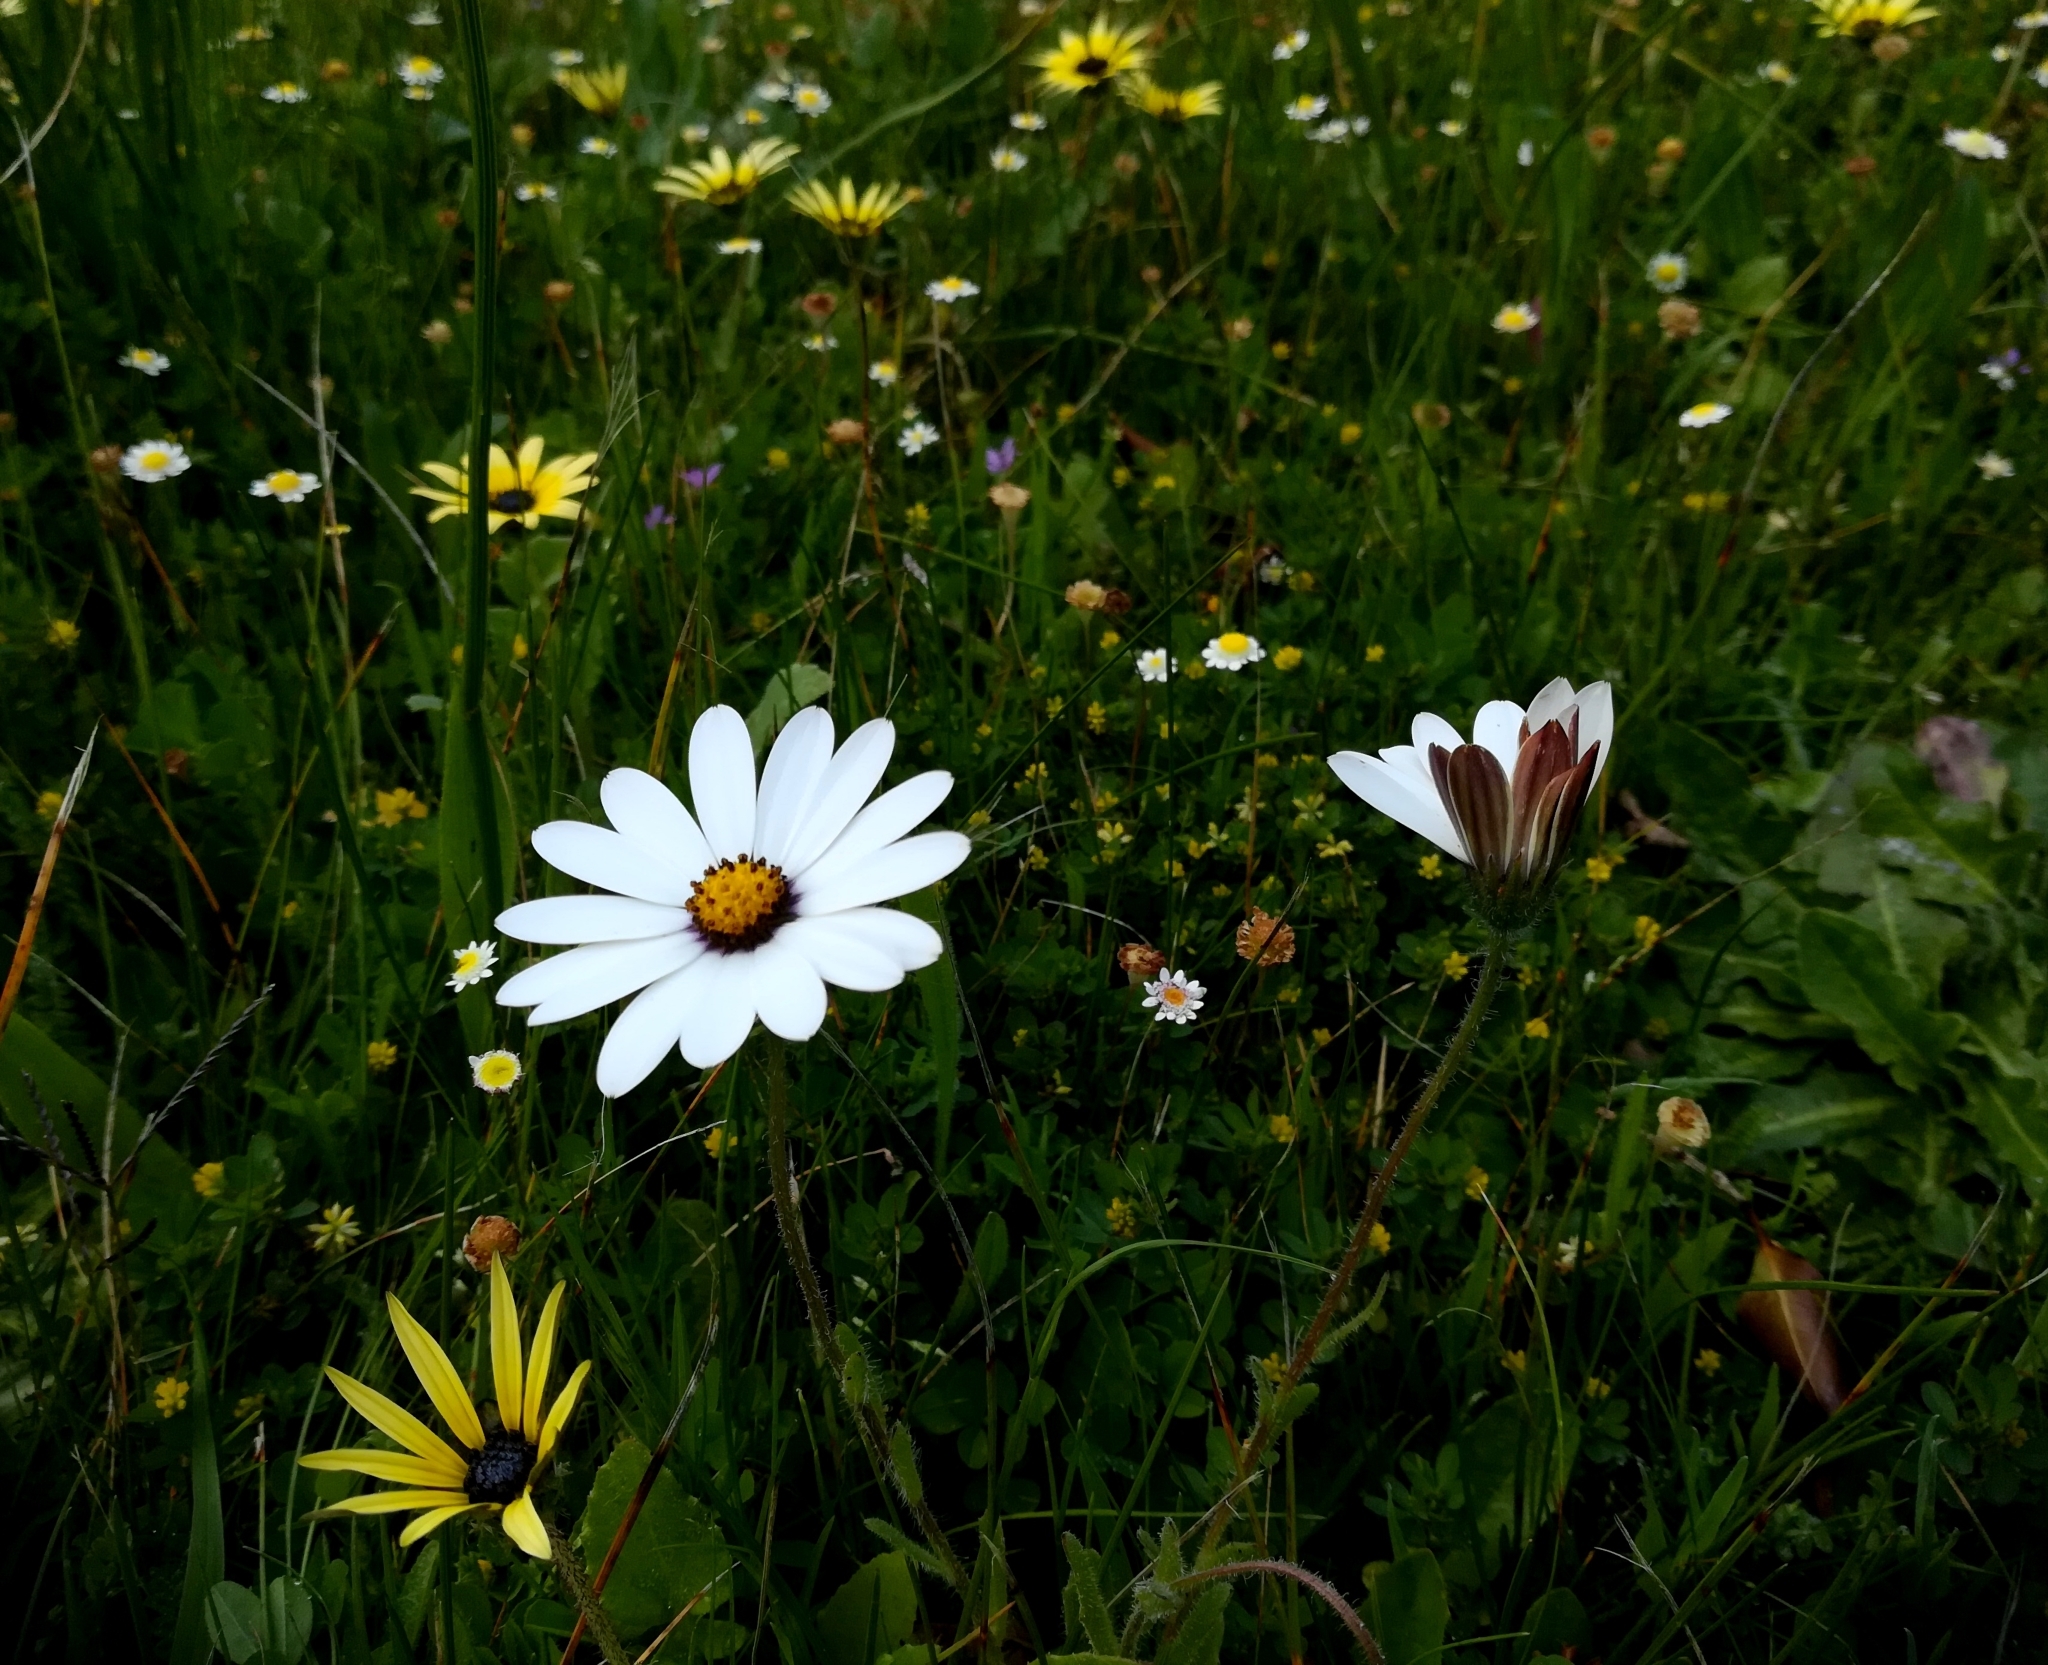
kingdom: Plantae
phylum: Tracheophyta
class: Magnoliopsida
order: Asterales
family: Asteraceae
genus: Dimorphotheca
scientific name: Dimorphotheca pluvialis
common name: Weather prophet
